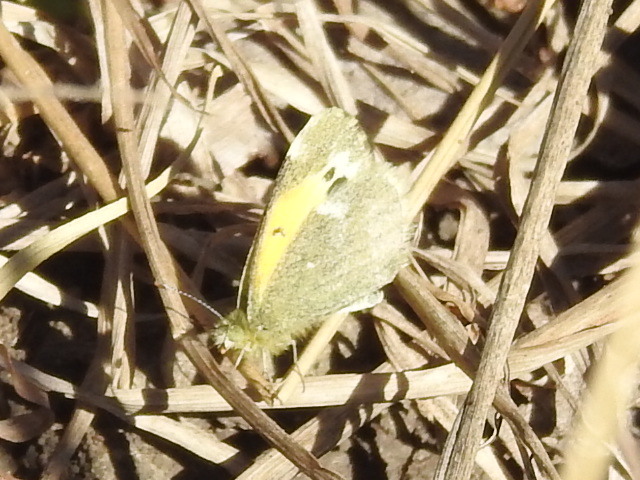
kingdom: Animalia
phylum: Arthropoda
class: Insecta
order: Lepidoptera
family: Pieridae
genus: Nathalis
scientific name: Nathalis iole
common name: Dainty sulphur
